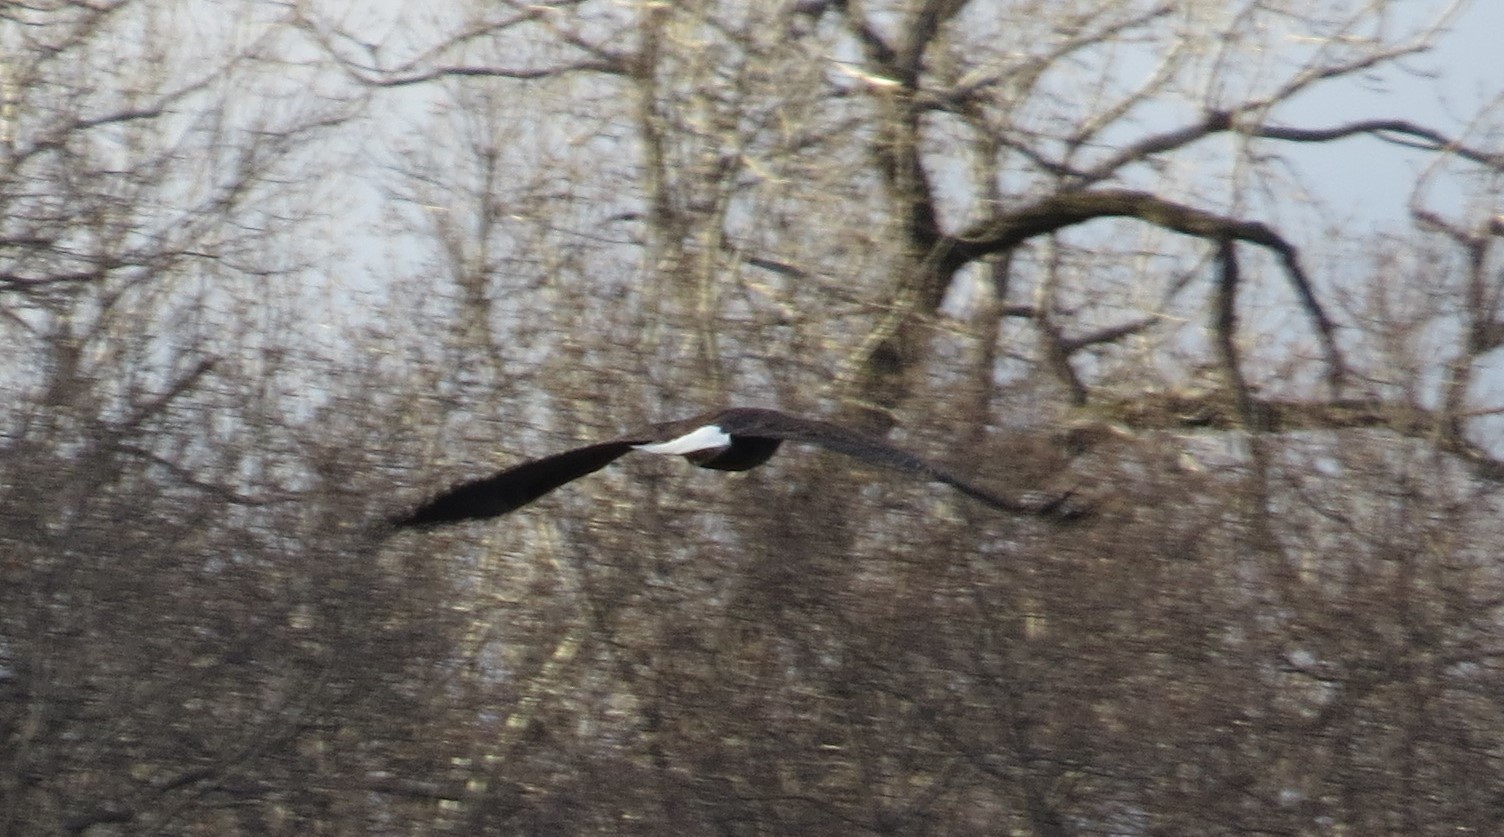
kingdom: Animalia
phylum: Chordata
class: Aves
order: Accipitriformes
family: Accipitridae
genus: Haliaeetus
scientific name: Haliaeetus leucocephalus
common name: Bald eagle
